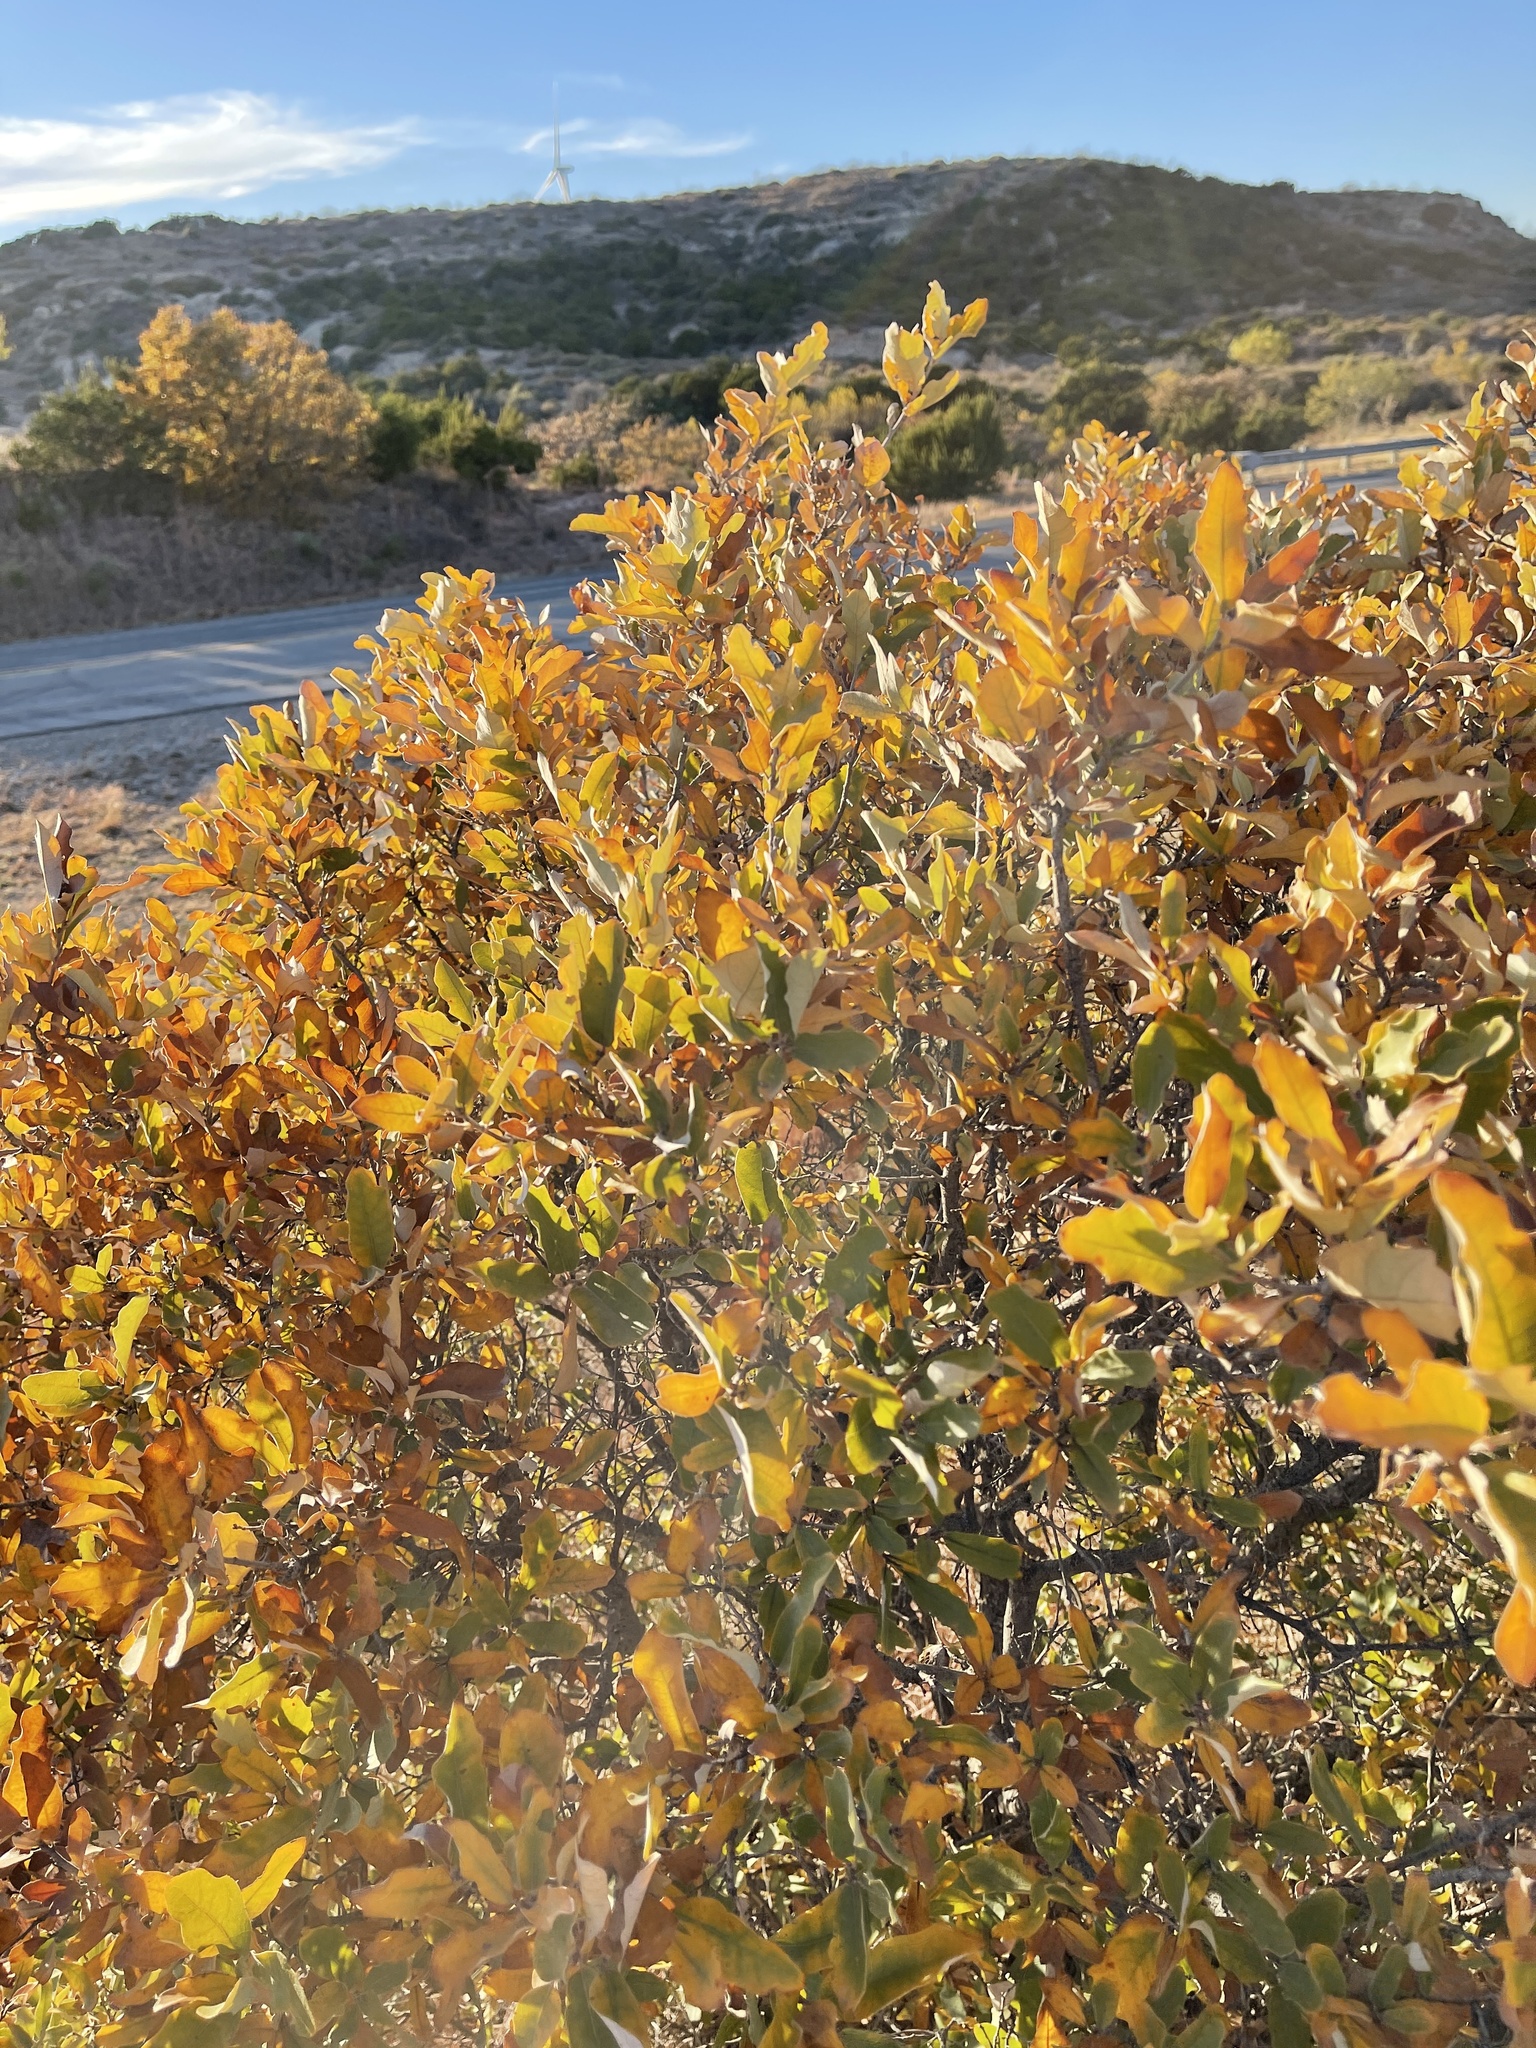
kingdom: Plantae
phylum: Tracheophyta
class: Magnoliopsida
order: Fagales
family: Fagaceae
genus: Quercus
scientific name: Quercus havardii
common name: Shinnery oak
